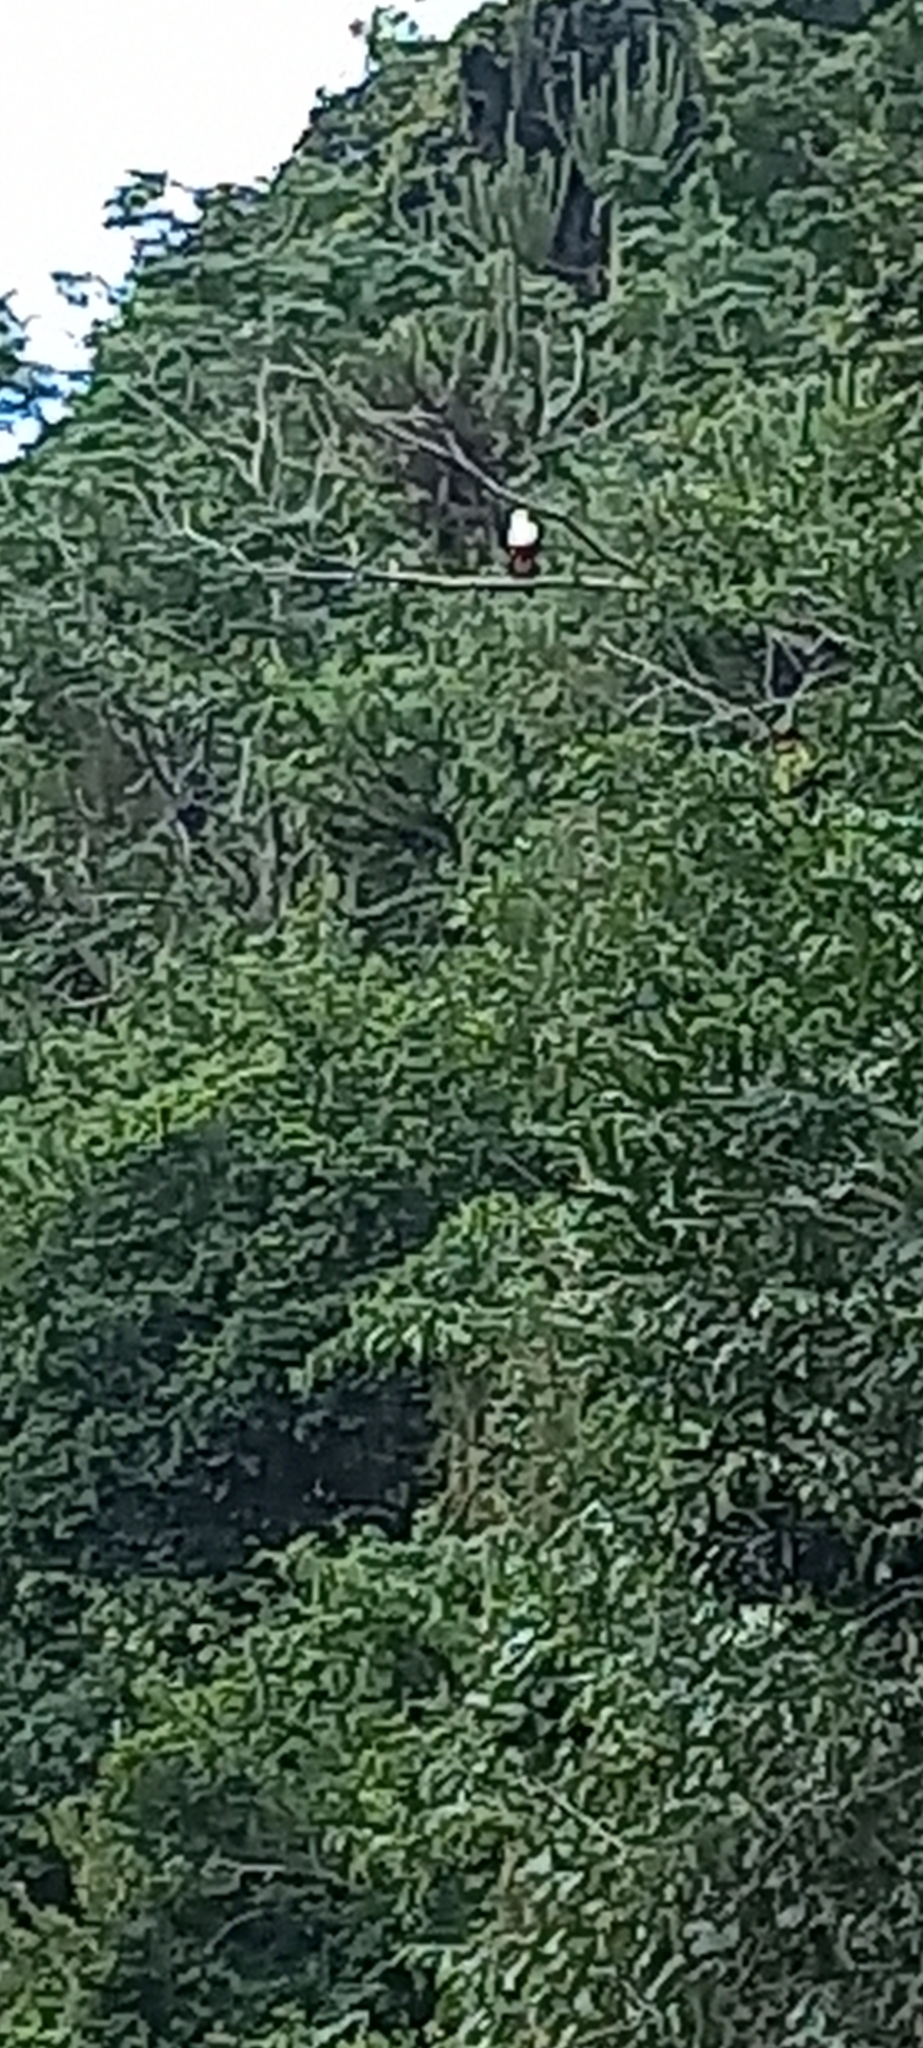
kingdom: Animalia
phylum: Chordata
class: Aves
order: Accipitriformes
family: Accipitridae
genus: Haliaeetus
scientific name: Haliaeetus vocifer
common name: African fish eagle
